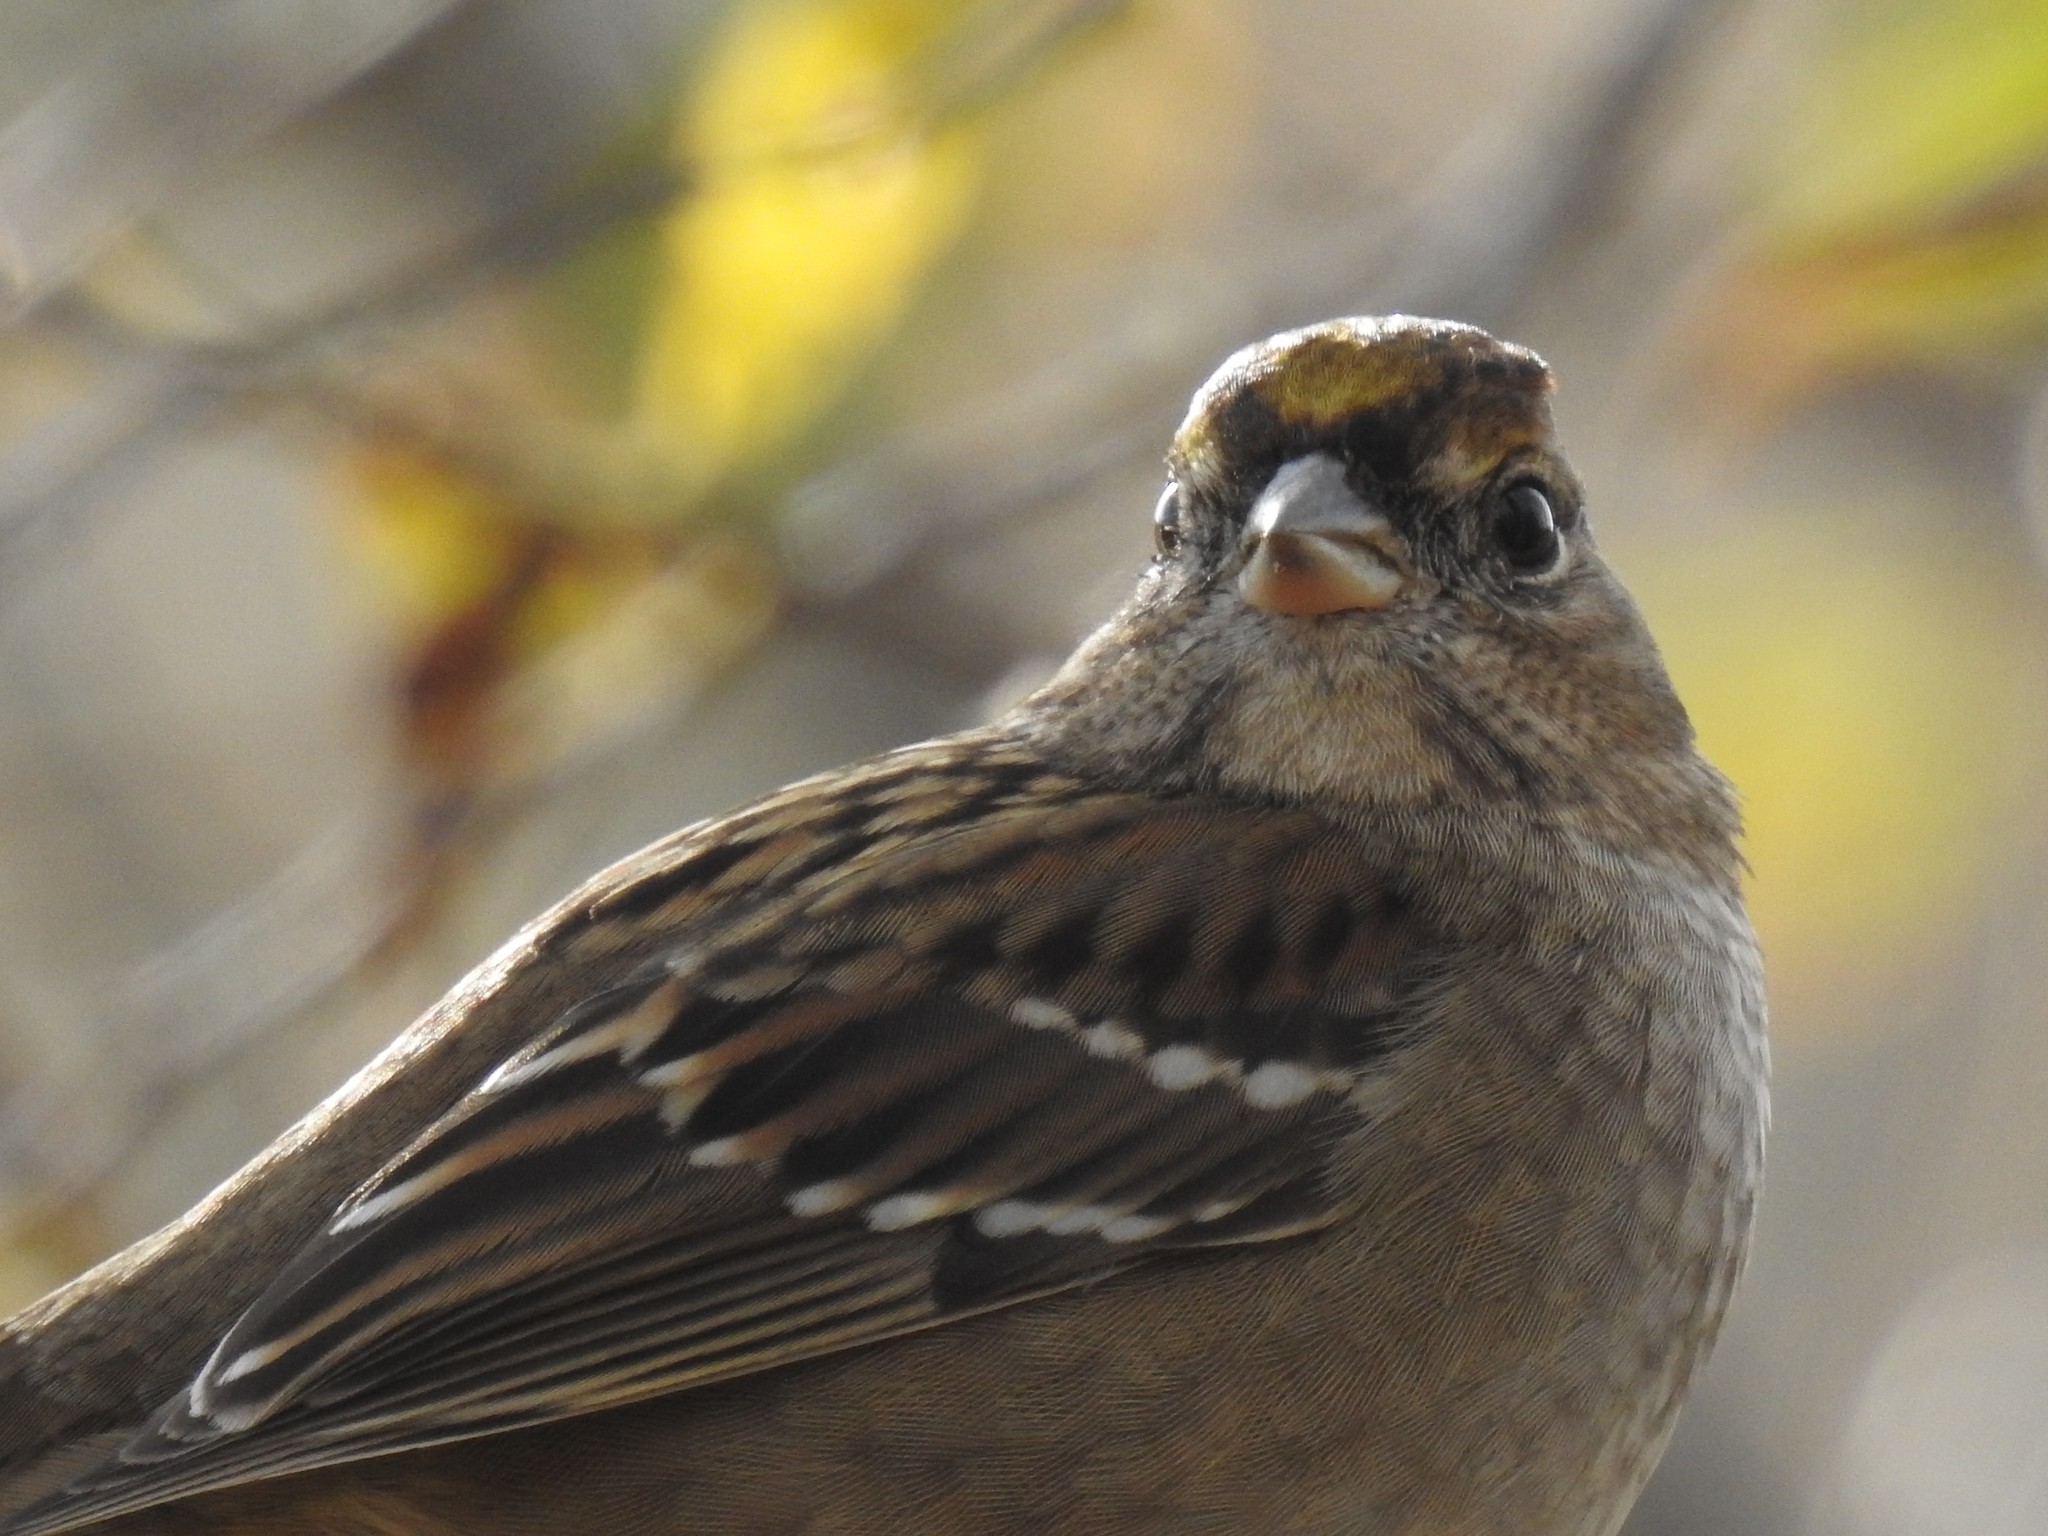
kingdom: Animalia
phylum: Chordata
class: Aves
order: Passeriformes
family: Passerellidae
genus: Zonotrichia
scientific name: Zonotrichia atricapilla
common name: Golden-crowned sparrow
